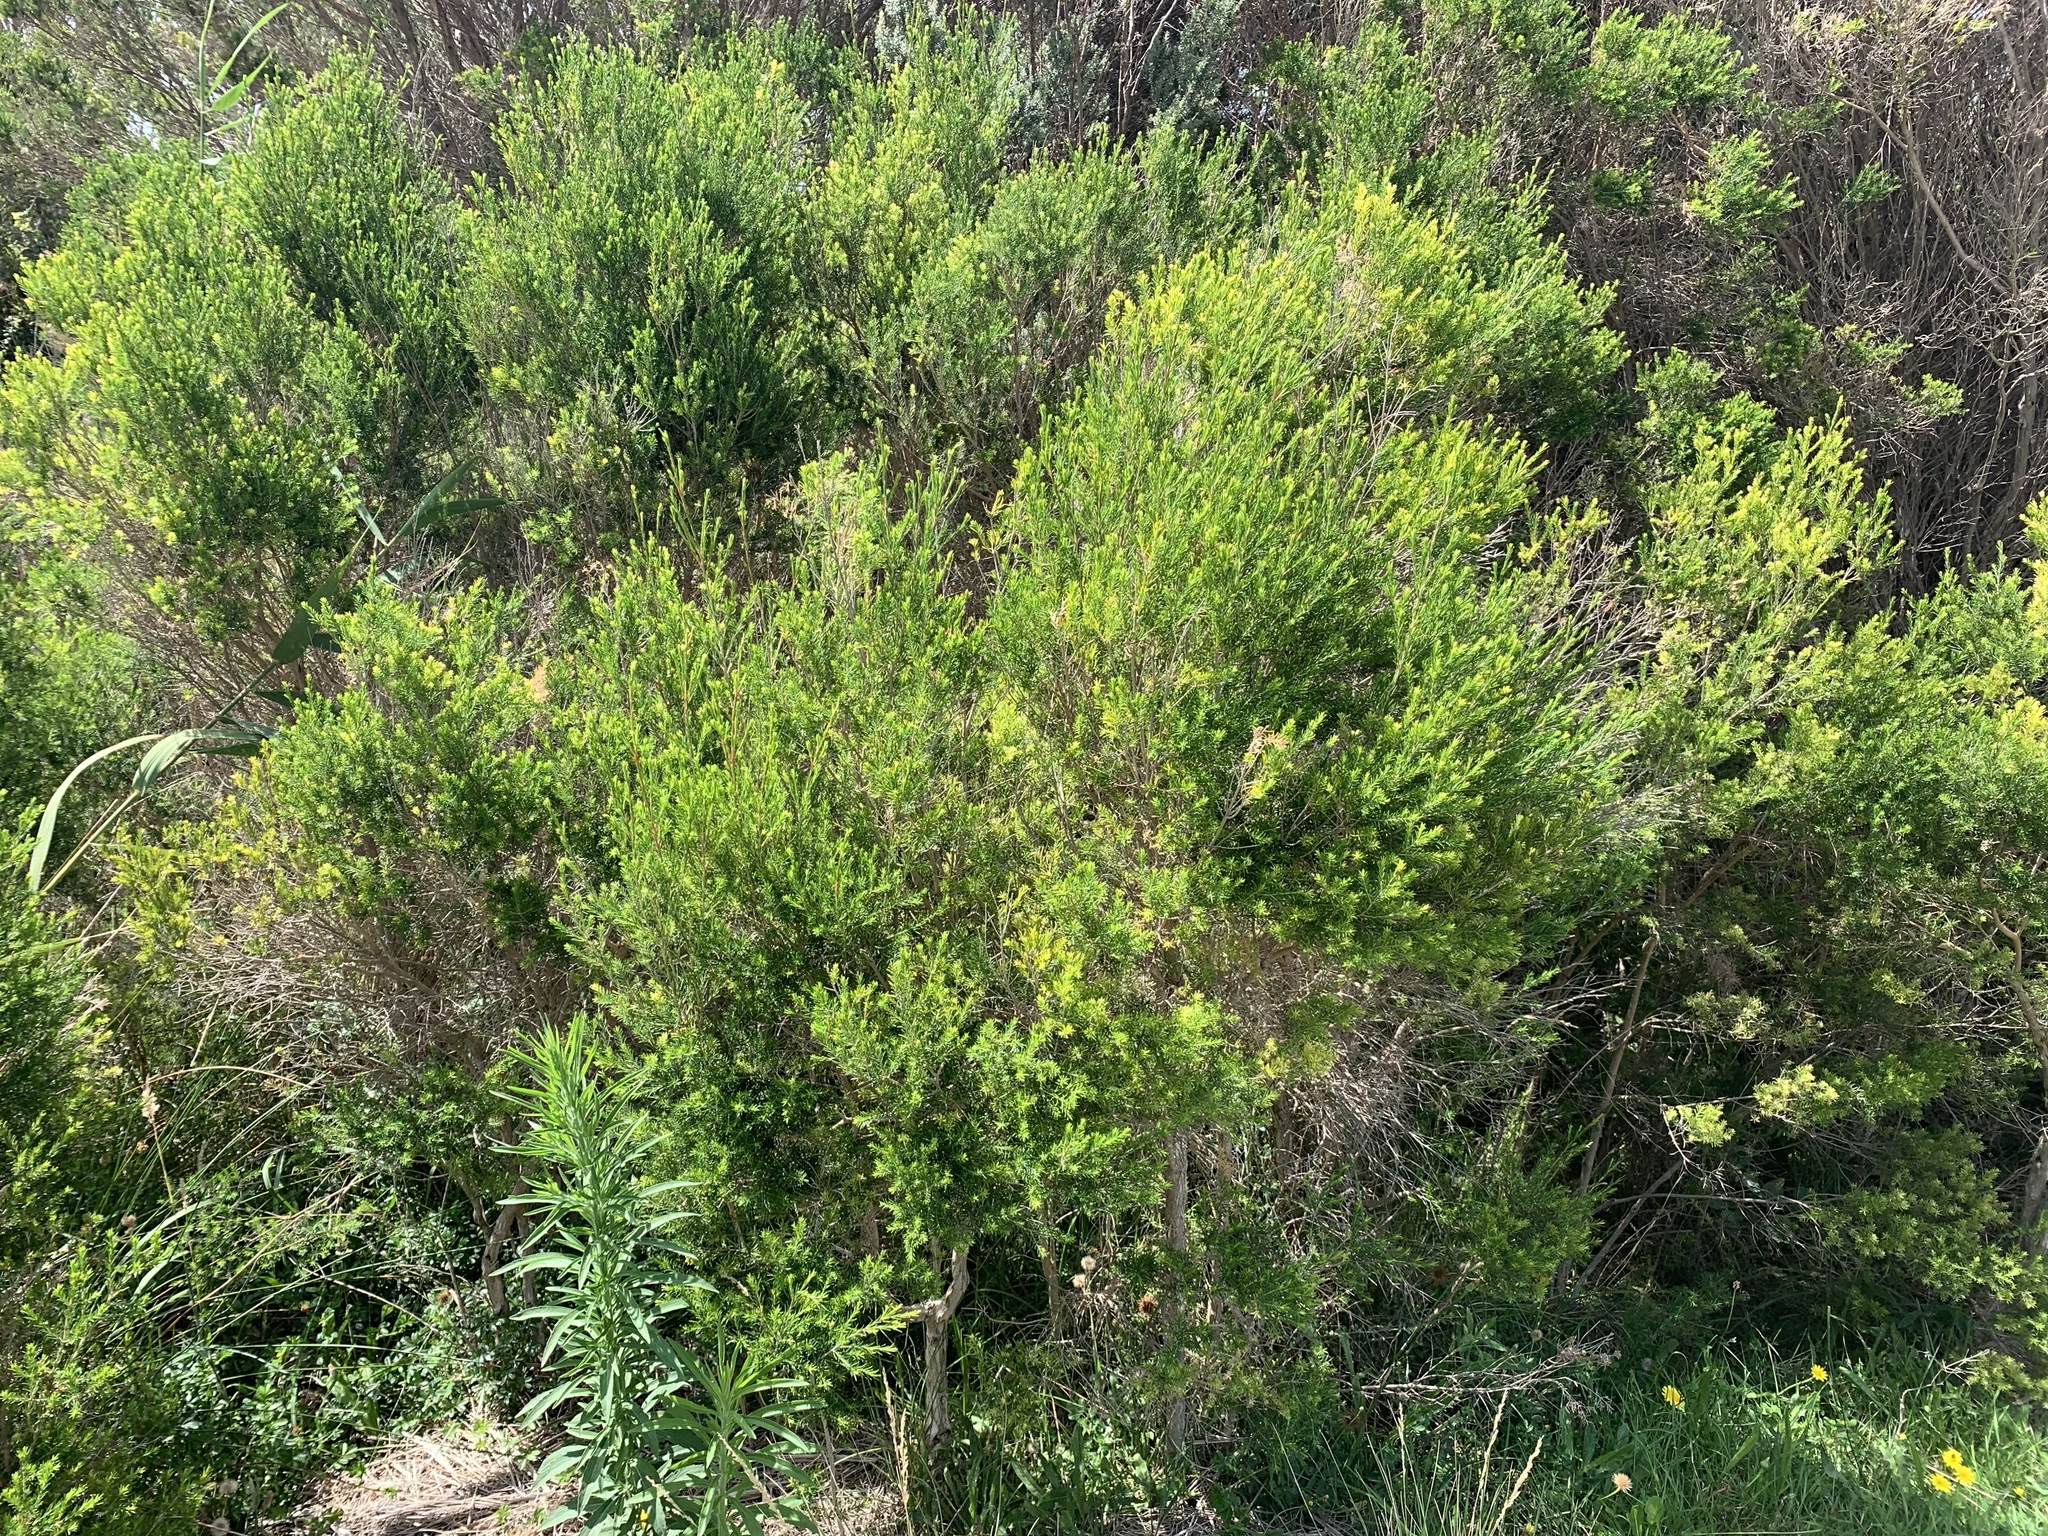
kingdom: Plantae
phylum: Tracheophyta
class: Magnoliopsida
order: Myrtales
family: Myrtaceae
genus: Melaleuca
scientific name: Melaleuca ericifolia
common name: Paperbark teatree
